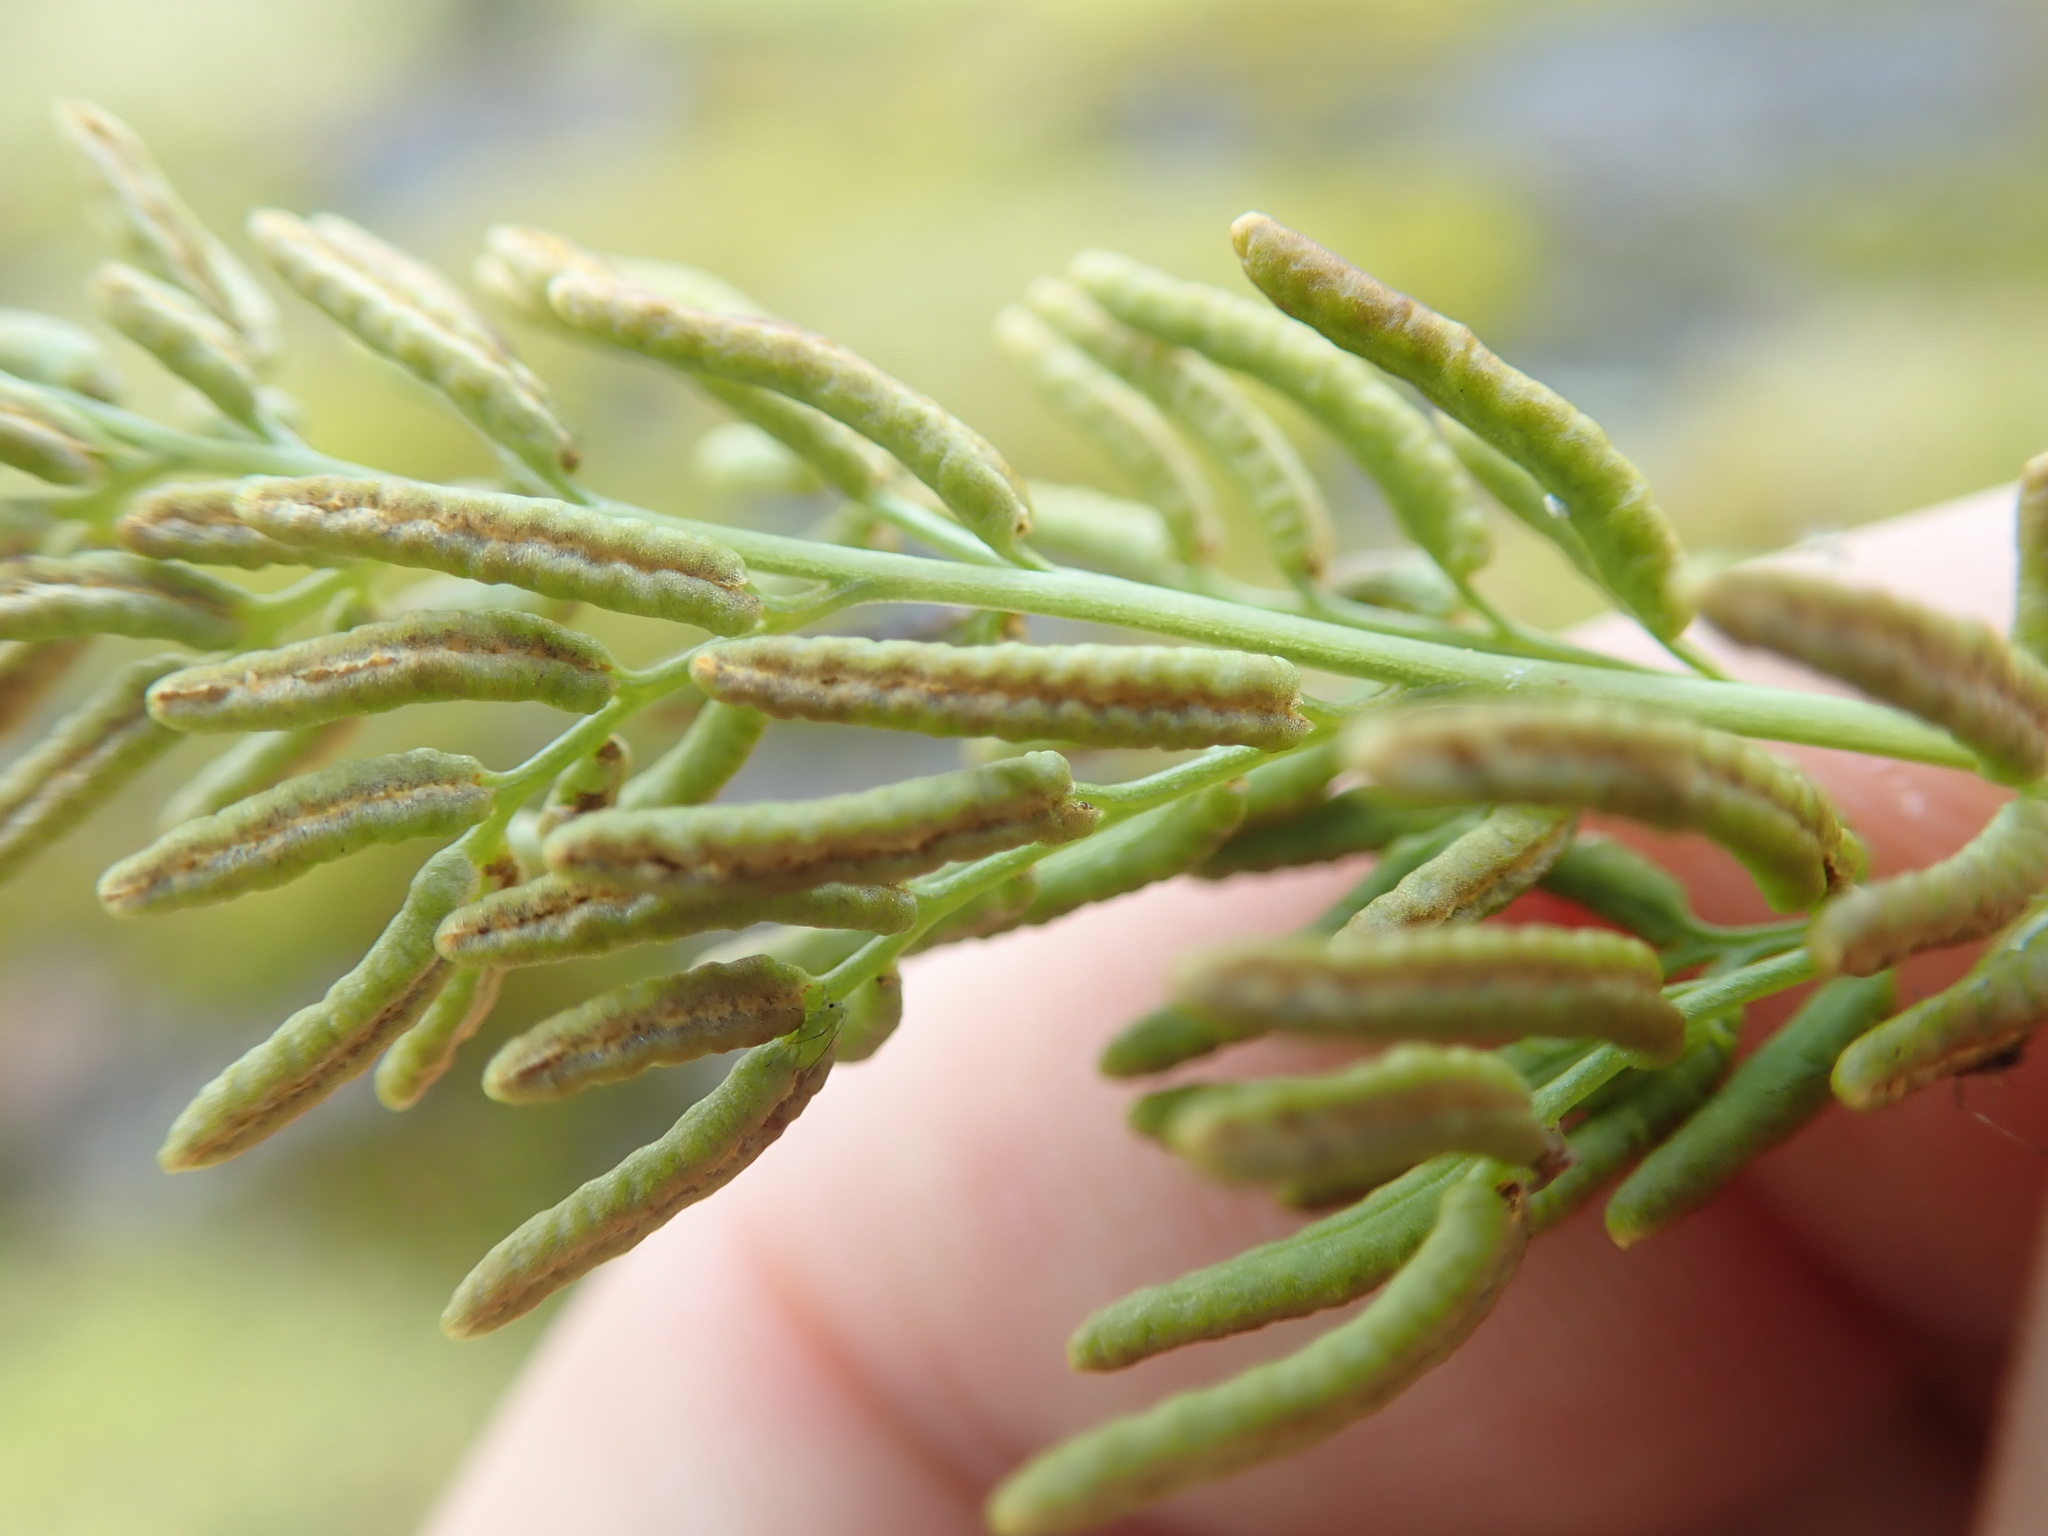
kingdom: Plantae
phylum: Tracheophyta
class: Polypodiopsida
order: Polypodiales
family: Pteridaceae
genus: Cryptogramma
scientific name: Cryptogramma acrostichoides
